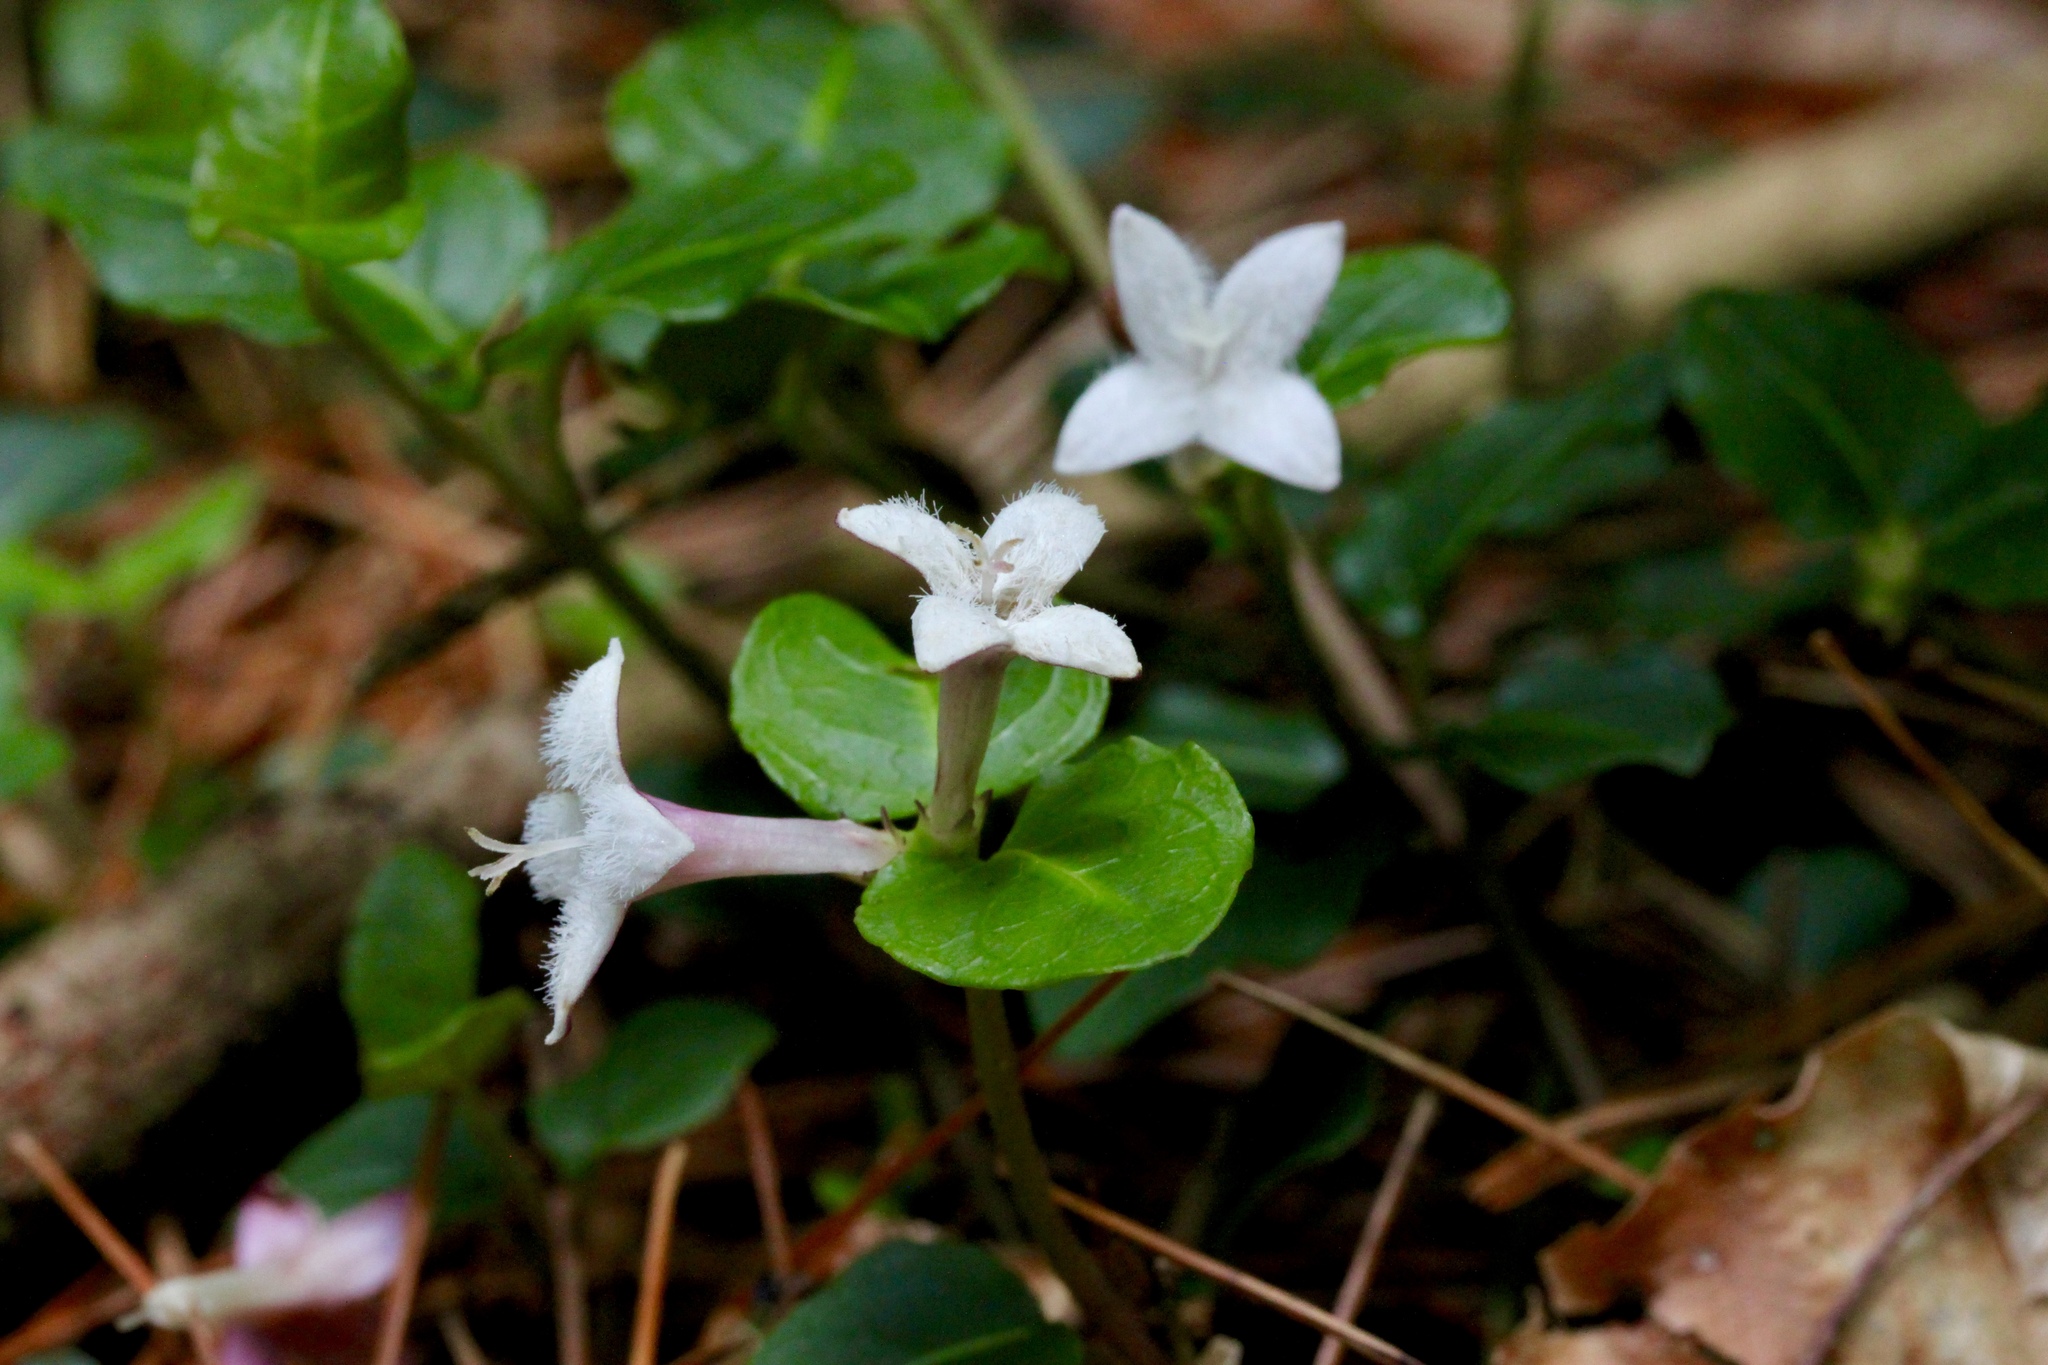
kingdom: Plantae
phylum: Tracheophyta
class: Magnoliopsida
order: Gentianales
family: Rubiaceae
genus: Mitchella
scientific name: Mitchella repens
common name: Partridge-berry
